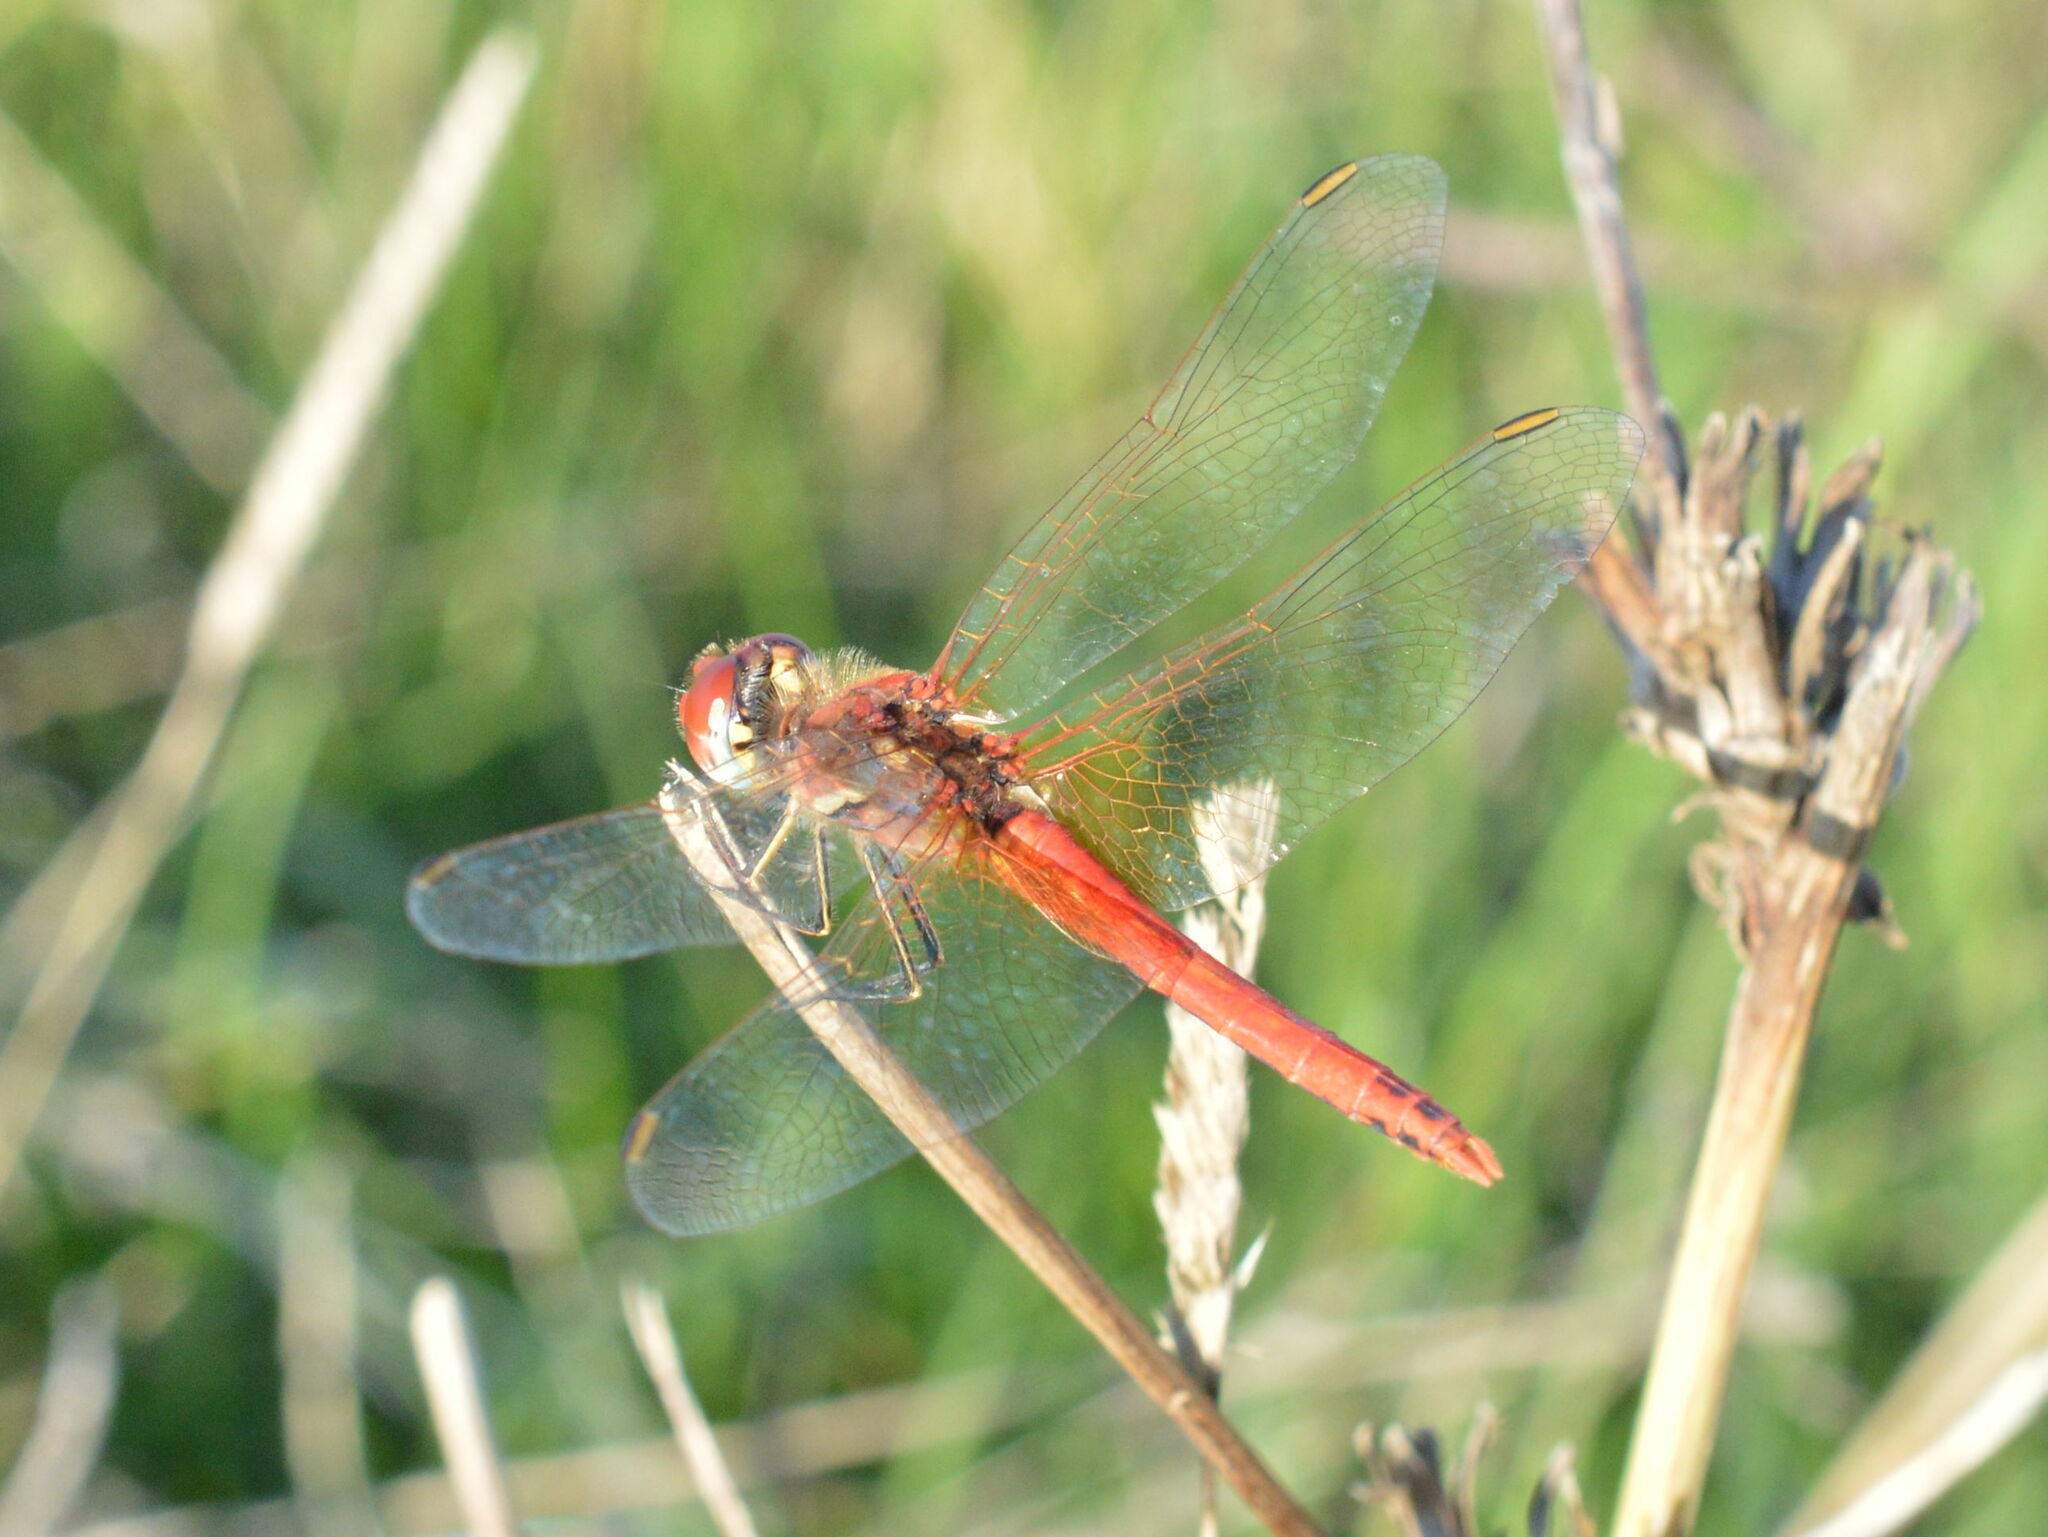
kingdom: Animalia
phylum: Arthropoda
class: Insecta
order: Odonata
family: Libellulidae
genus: Sympetrum
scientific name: Sympetrum fonscolombii
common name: Red-veined darter
